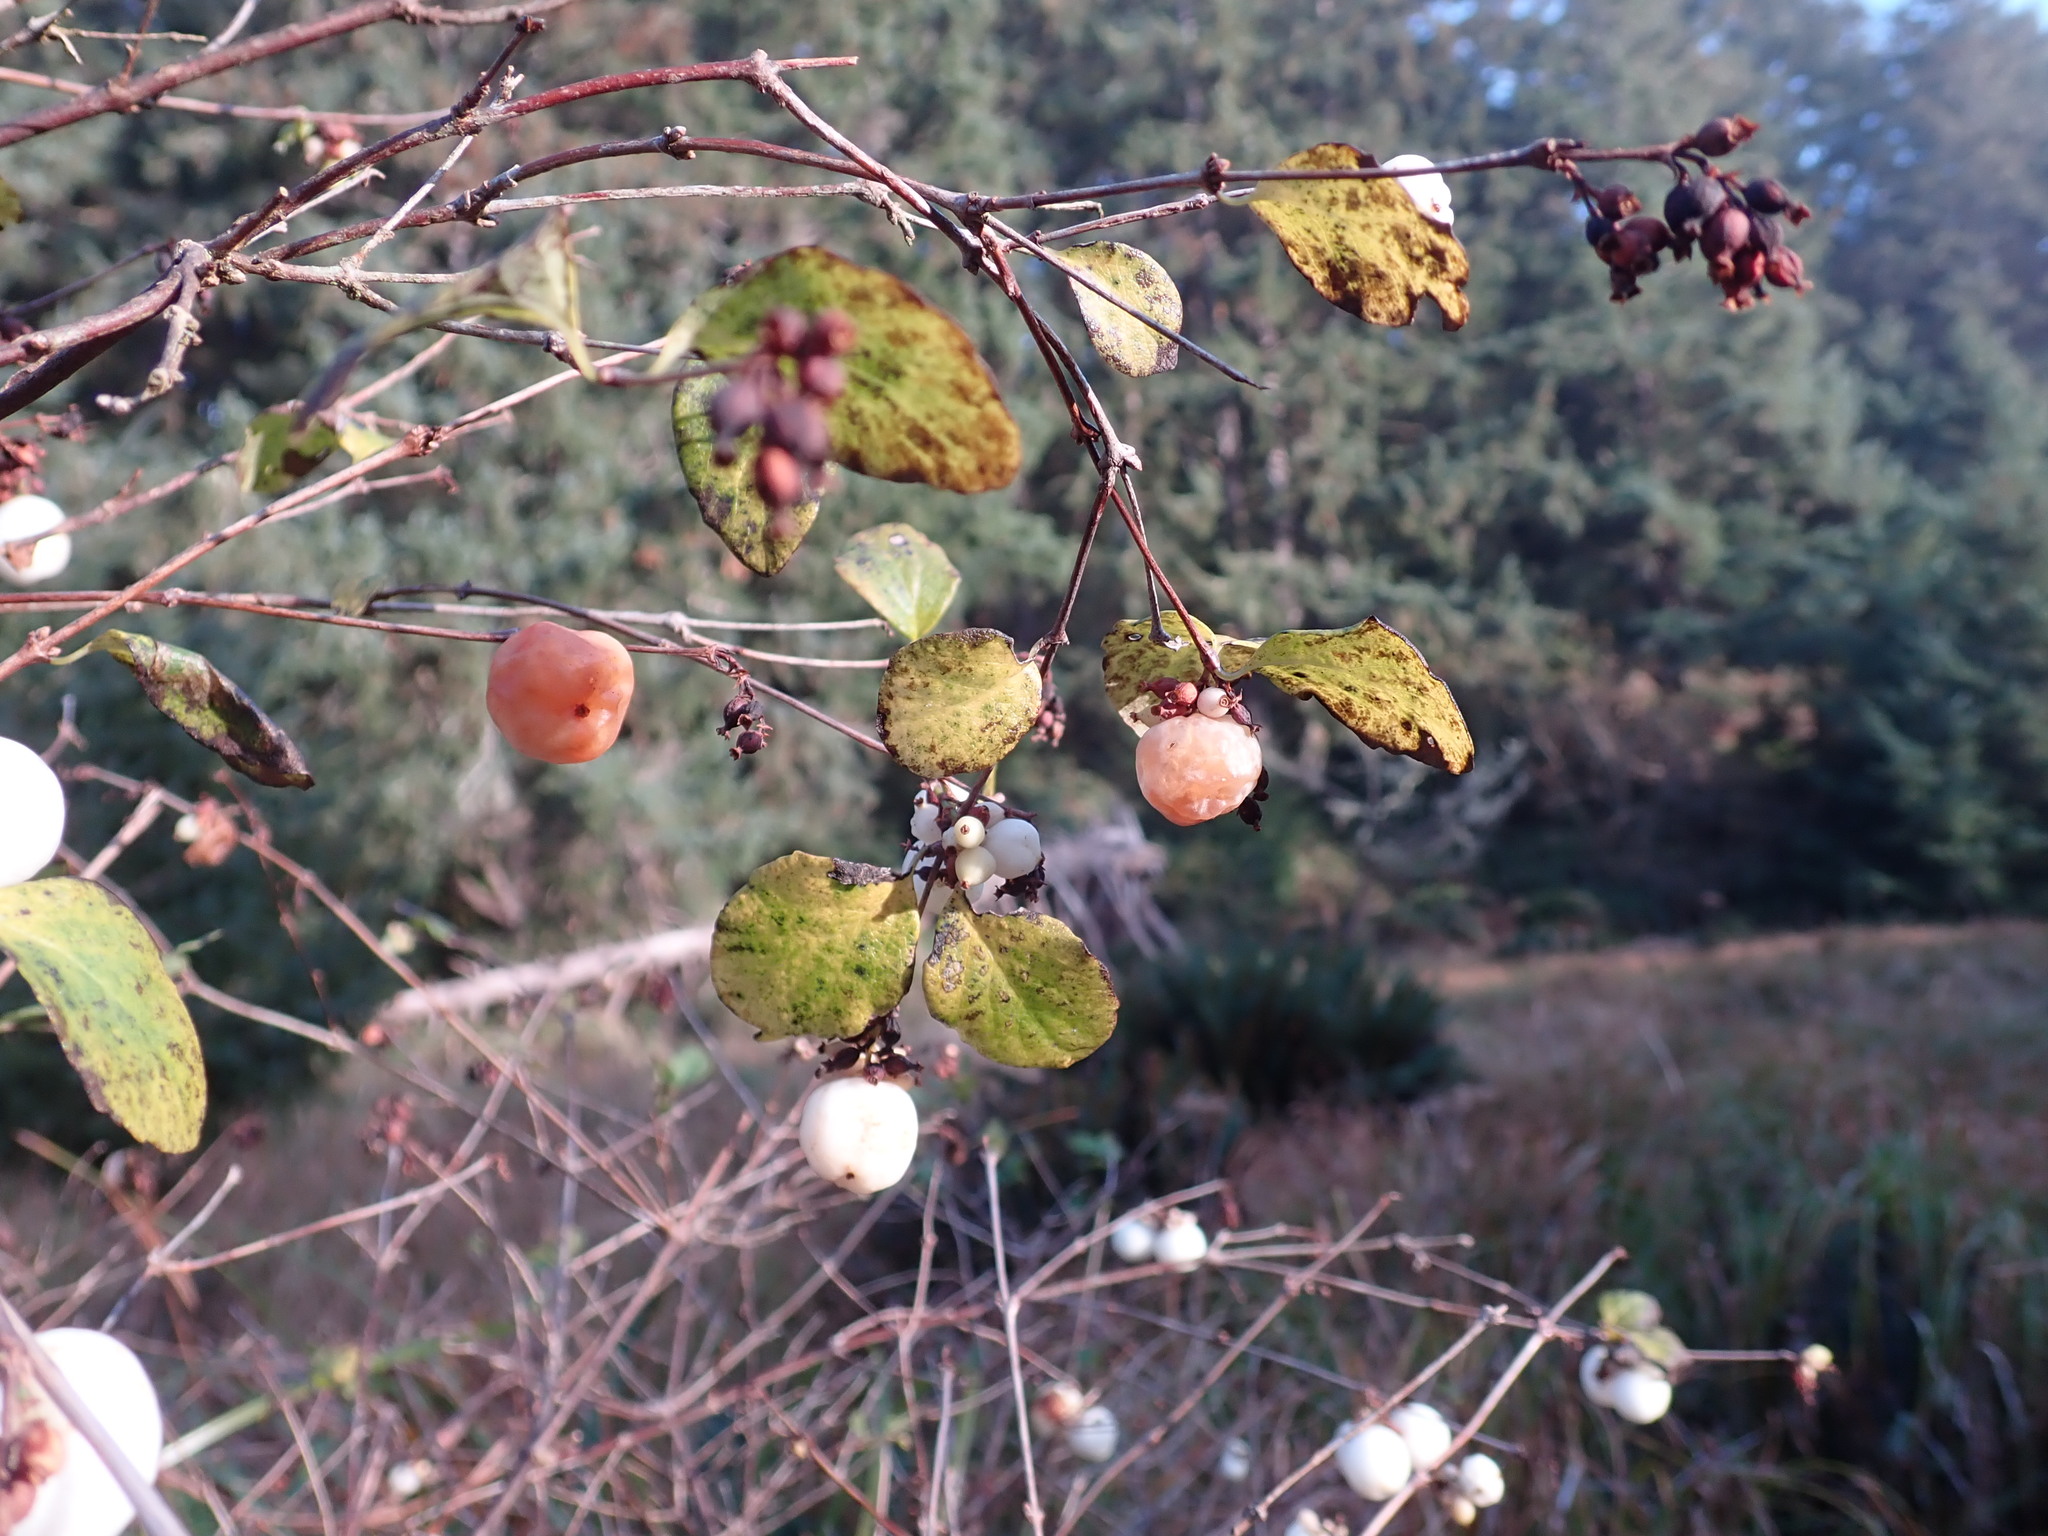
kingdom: Plantae
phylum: Tracheophyta
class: Magnoliopsida
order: Dipsacales
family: Caprifoliaceae
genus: Symphoricarpos
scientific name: Symphoricarpos albus
